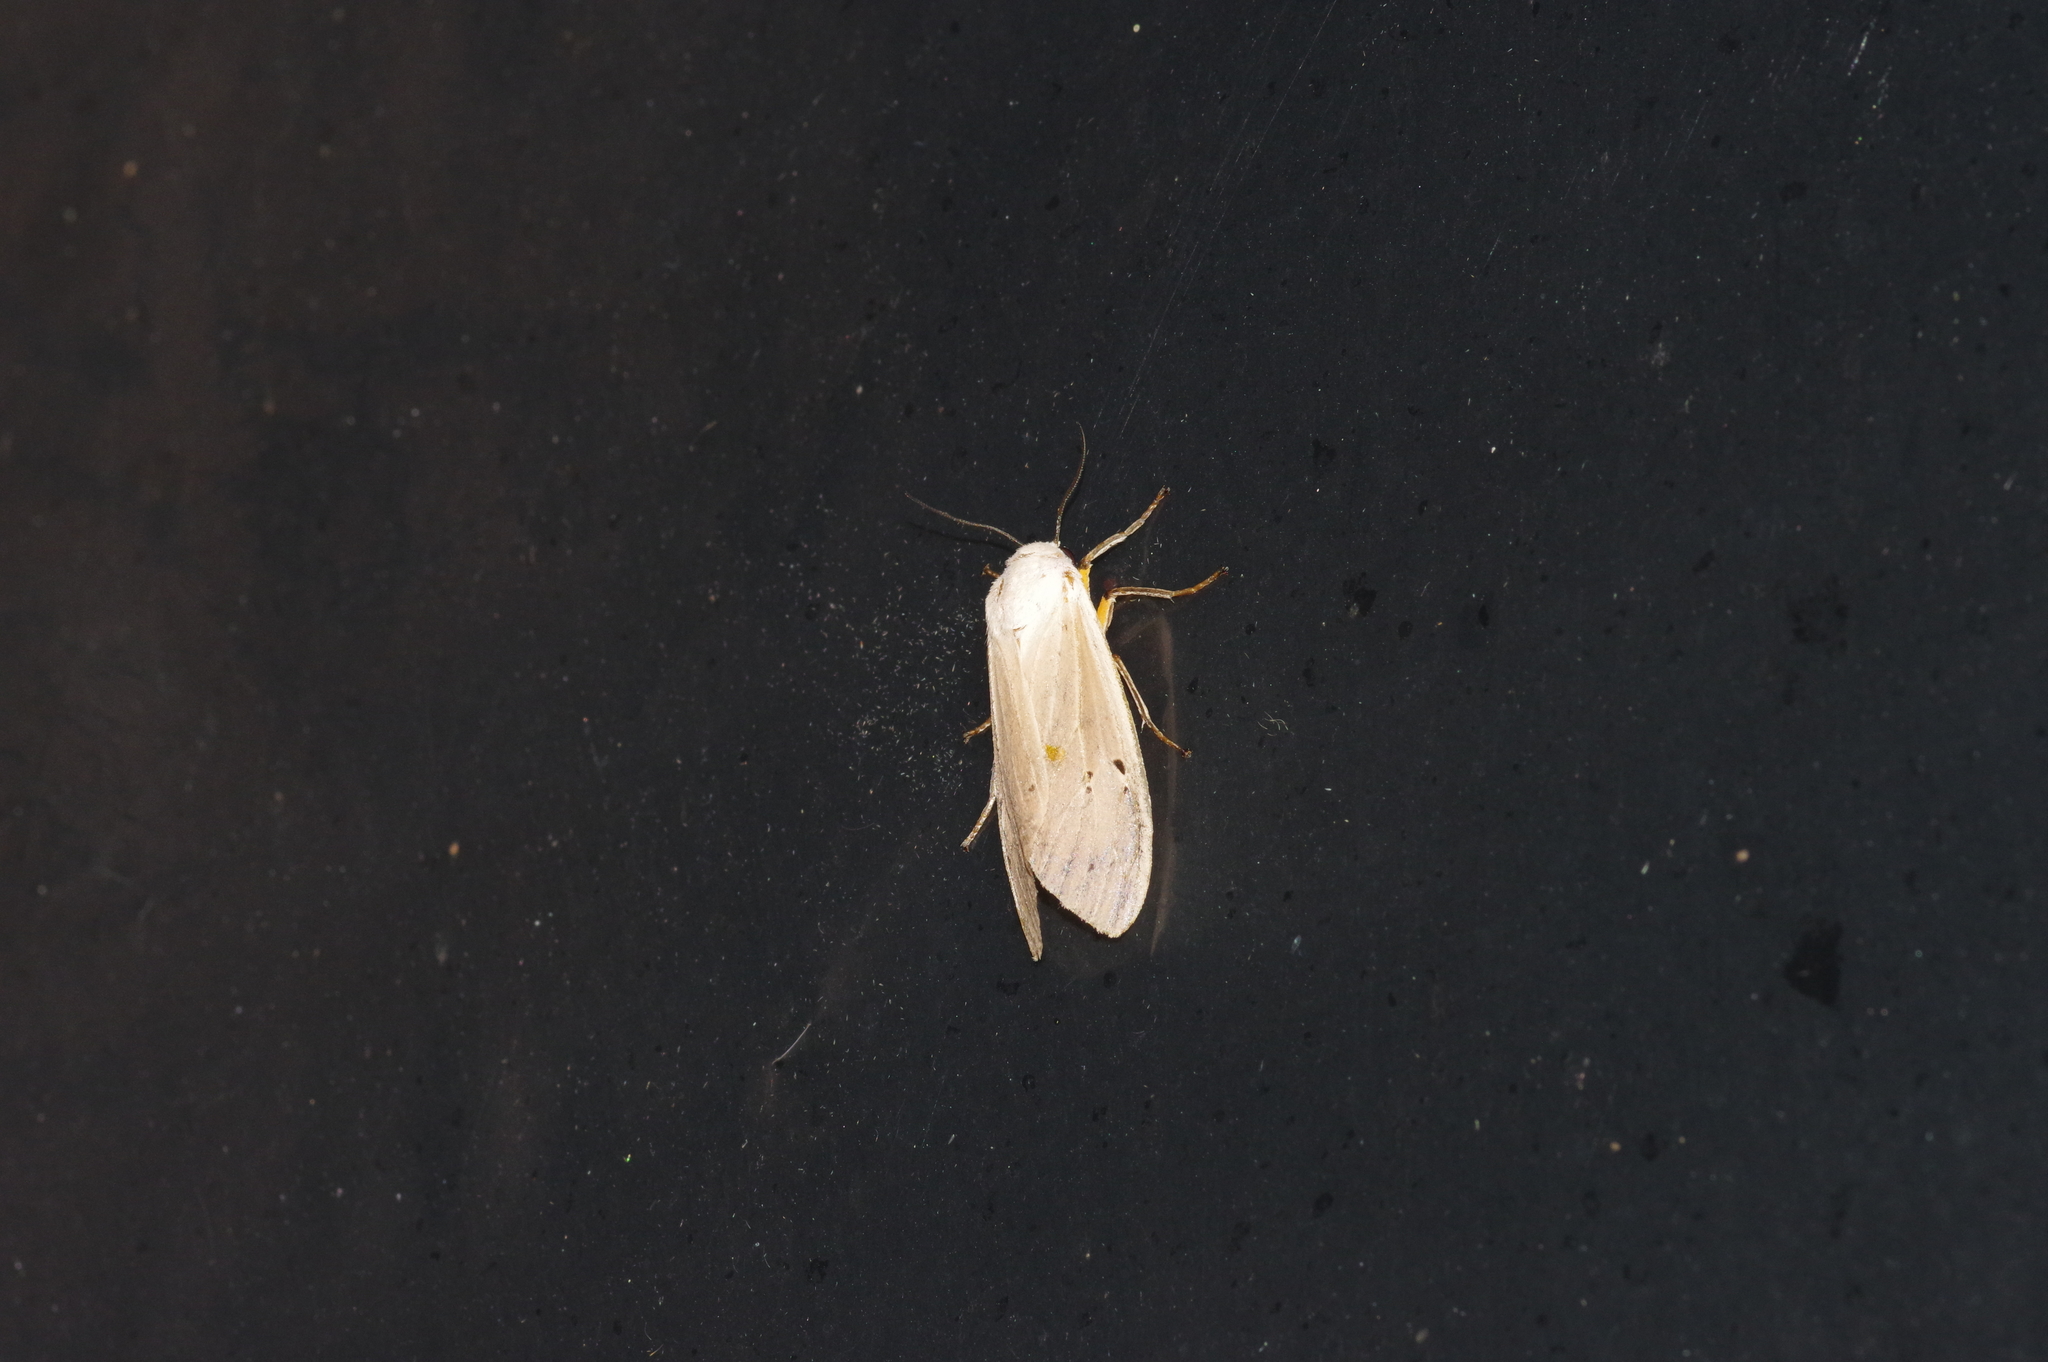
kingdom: Animalia
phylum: Arthropoda
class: Insecta
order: Lepidoptera
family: Erebidae
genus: Creatonotos
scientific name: Creatonotos transiens
